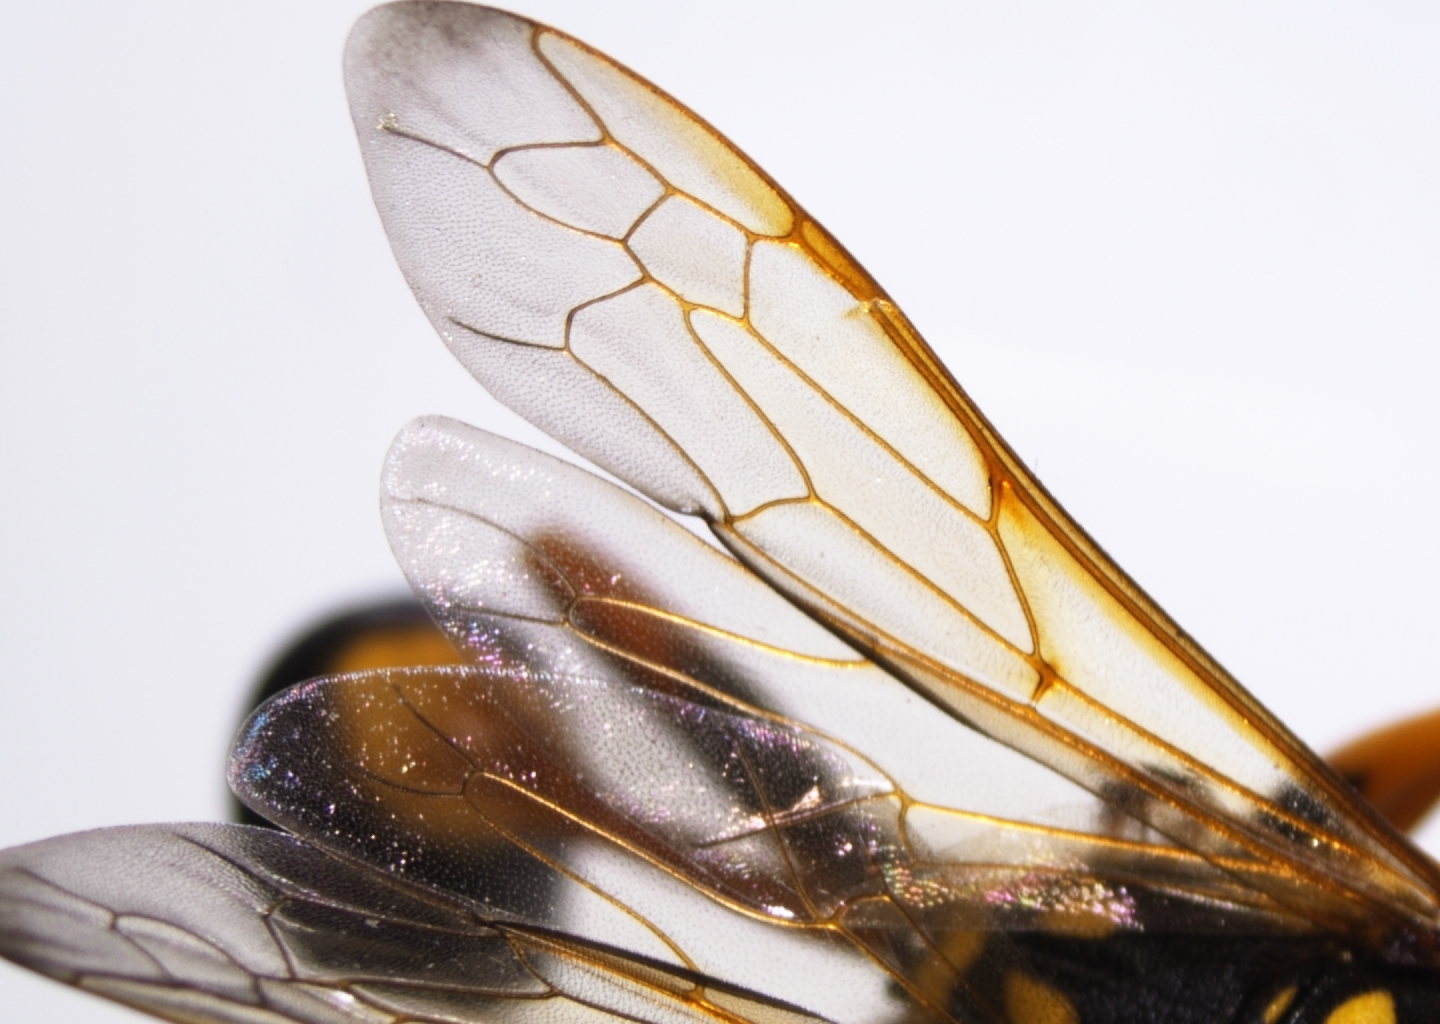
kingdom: Animalia
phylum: Arthropoda
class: Insecta
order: Hymenoptera
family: Sphecidae
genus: Sceliphron
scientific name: Sceliphron laetum
